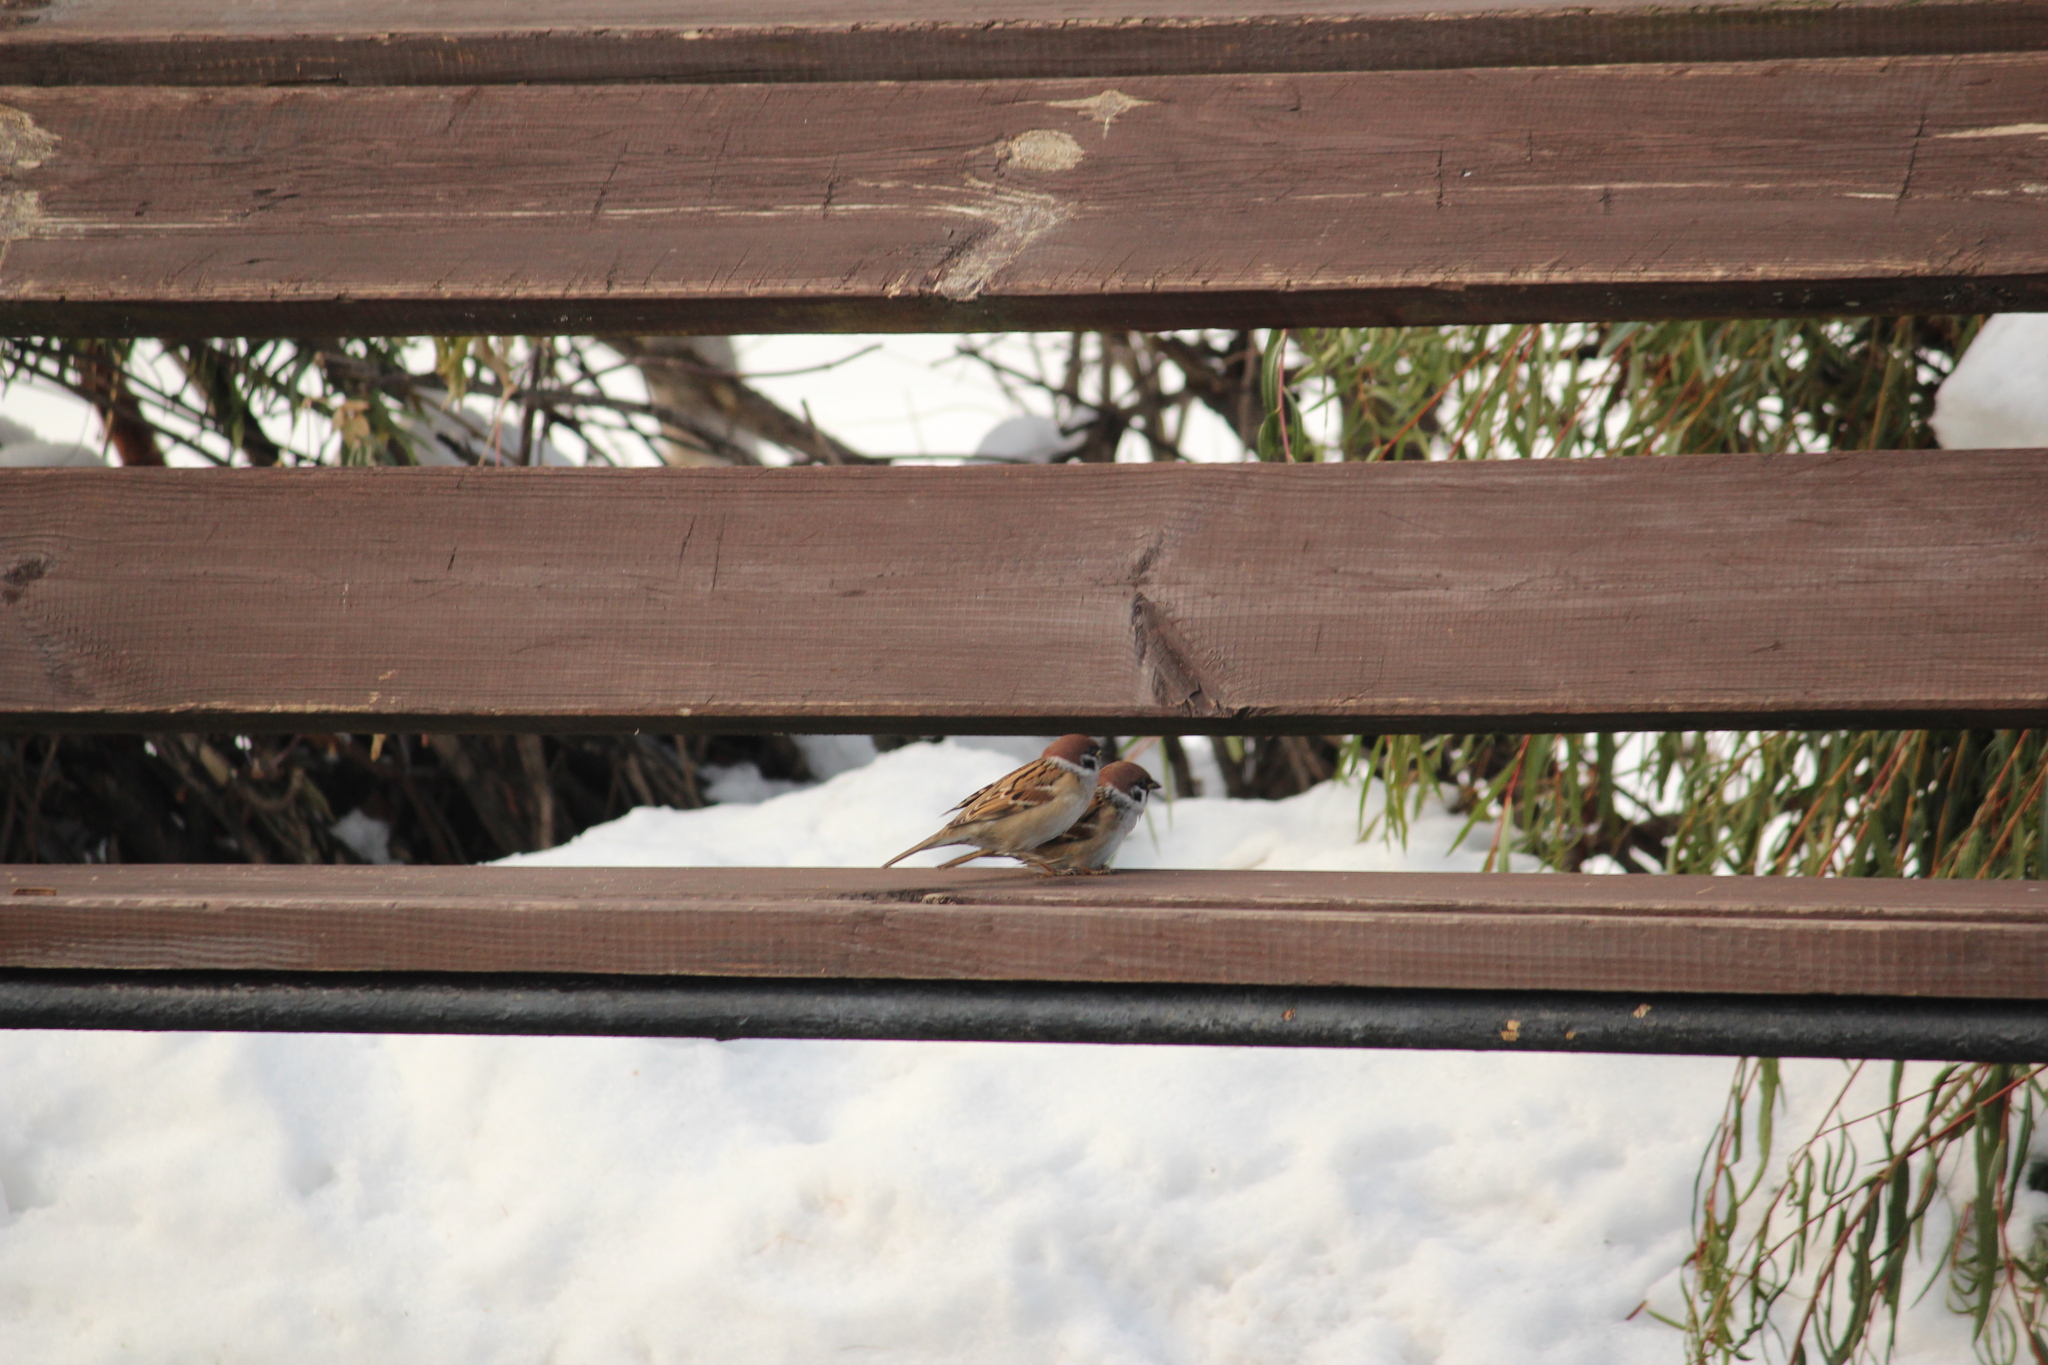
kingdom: Animalia
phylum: Chordata
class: Aves
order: Passeriformes
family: Passeridae
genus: Passer
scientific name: Passer montanus
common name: Eurasian tree sparrow
